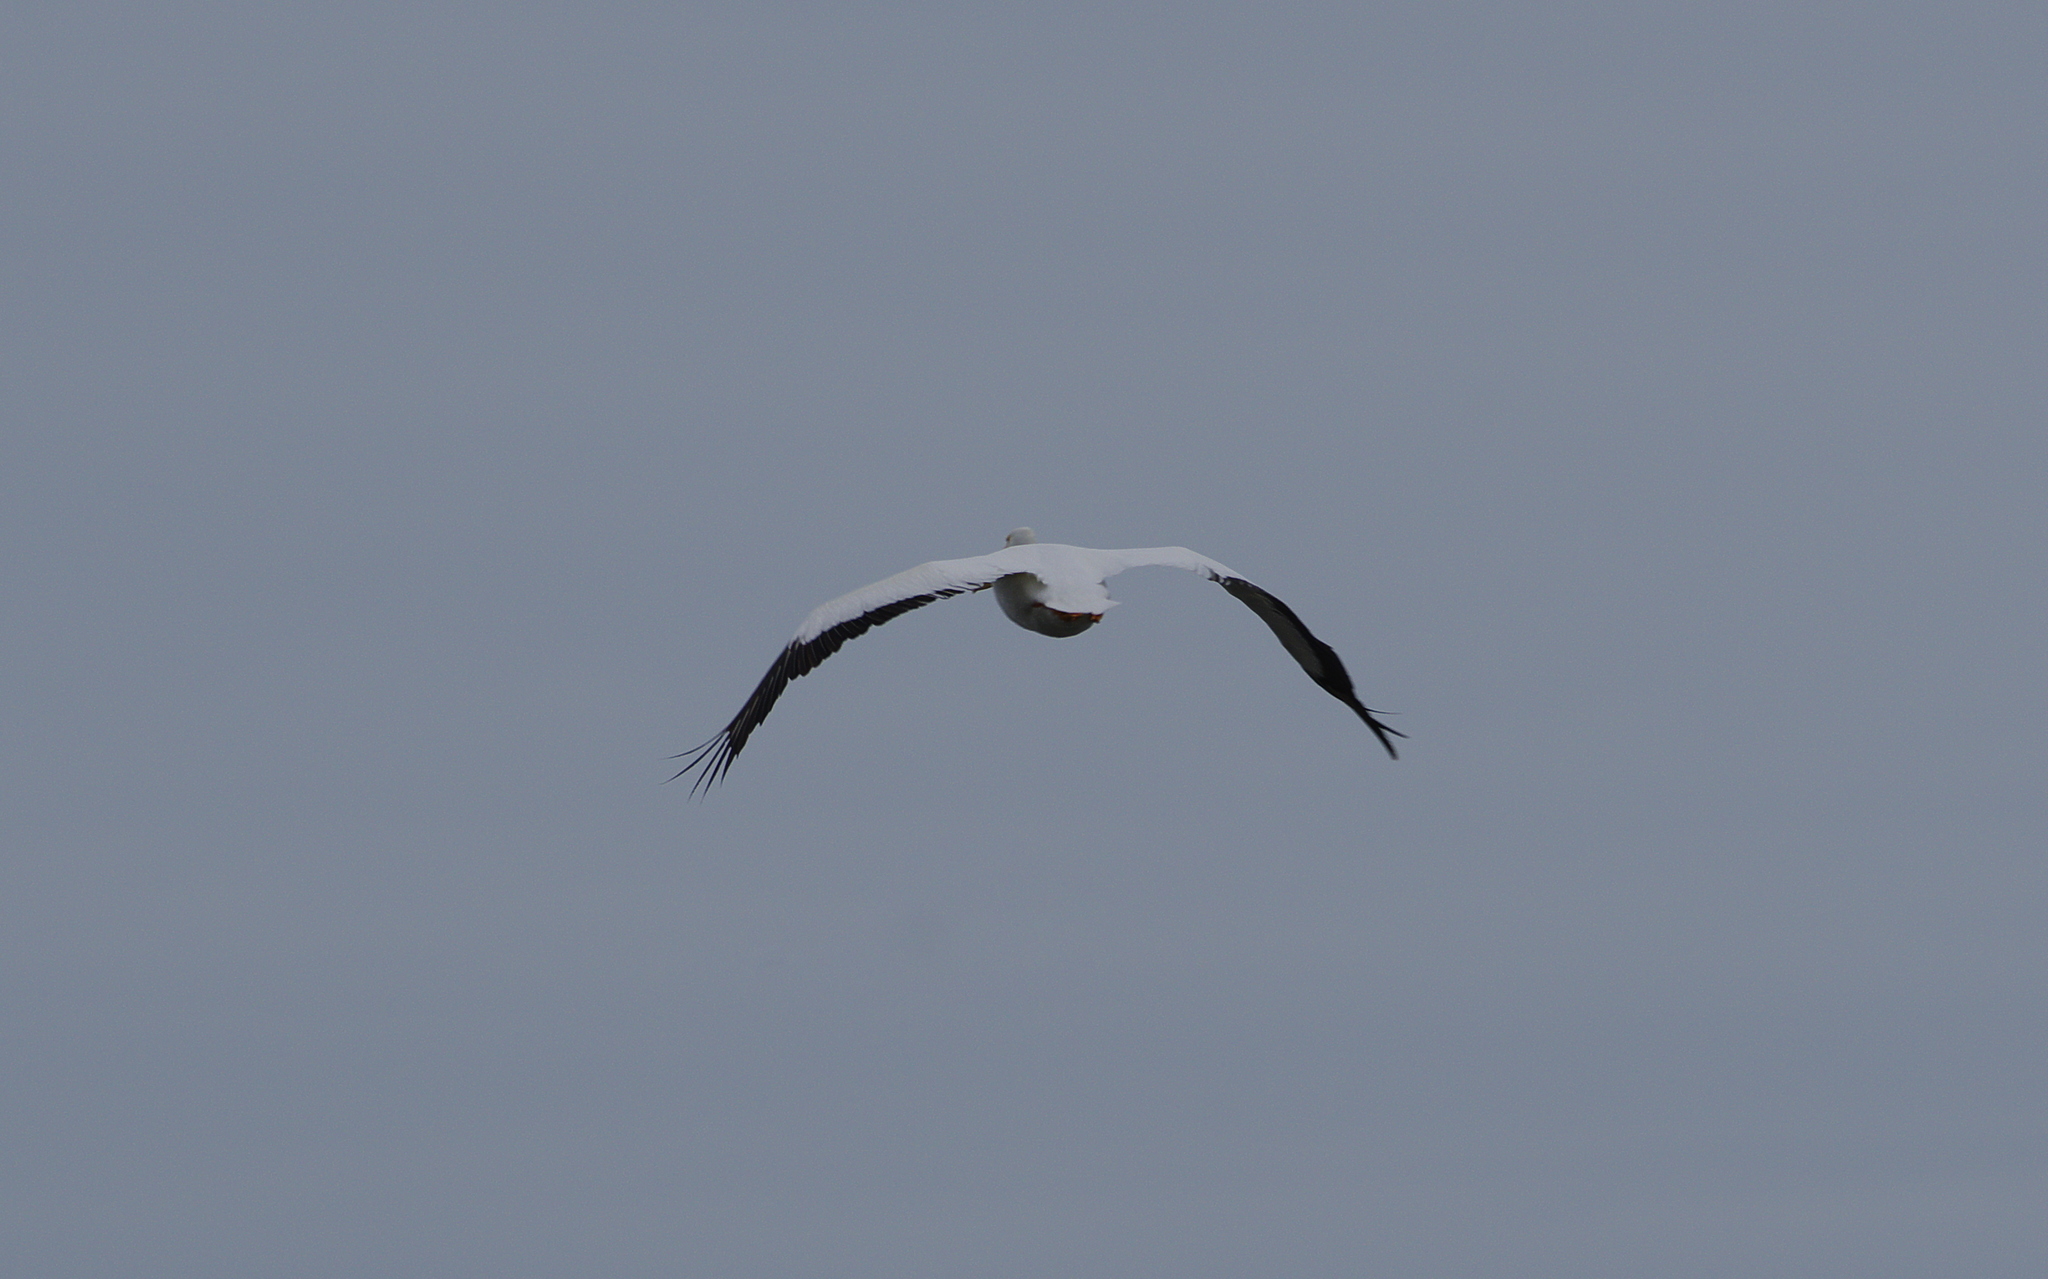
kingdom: Animalia
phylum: Chordata
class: Aves
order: Pelecaniformes
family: Pelecanidae
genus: Pelecanus
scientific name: Pelecanus erythrorhynchos
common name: American white pelican
